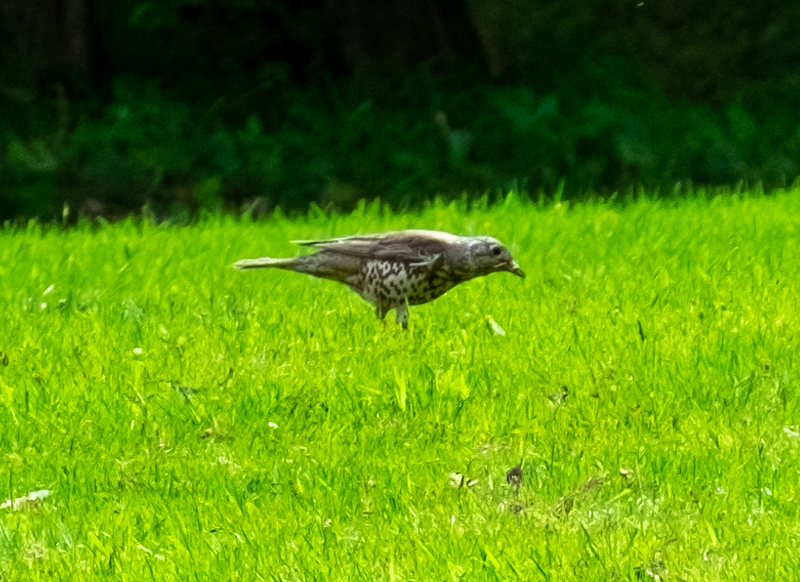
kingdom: Animalia
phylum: Chordata
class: Aves
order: Passeriformes
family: Turdidae
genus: Turdus
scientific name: Turdus viscivorus
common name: Mistle thrush
